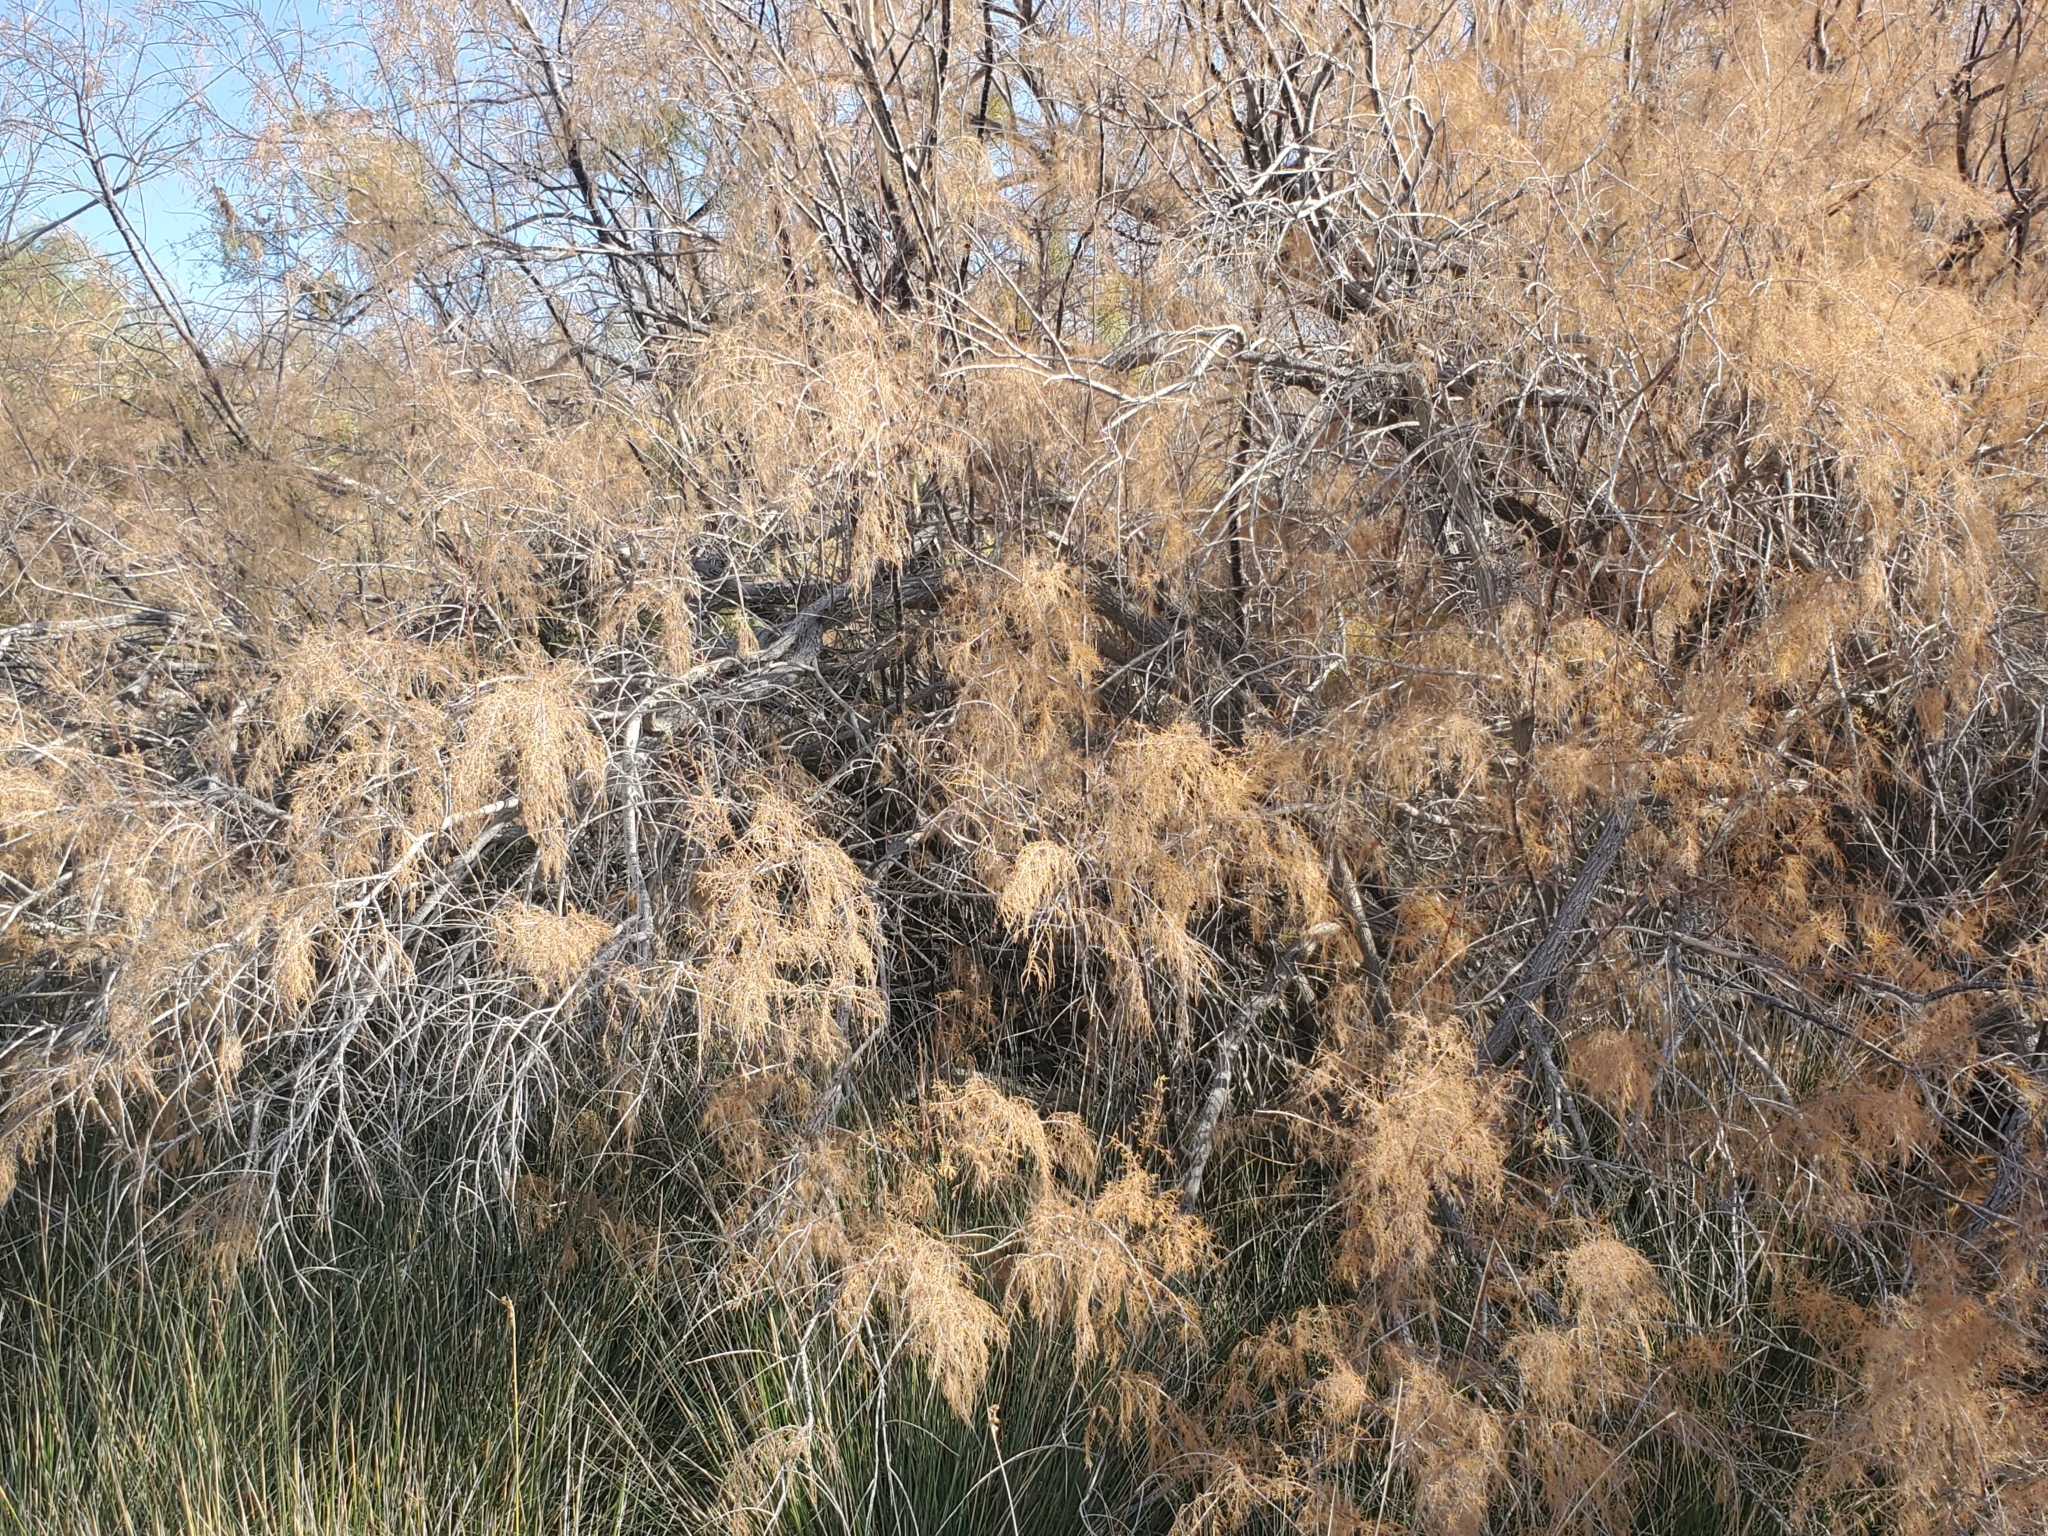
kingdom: Plantae
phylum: Tracheophyta
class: Magnoliopsida
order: Caryophyllales
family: Tamaricaceae
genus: Tamarix
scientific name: Tamarix ramosissima
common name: Pink tamarisk
